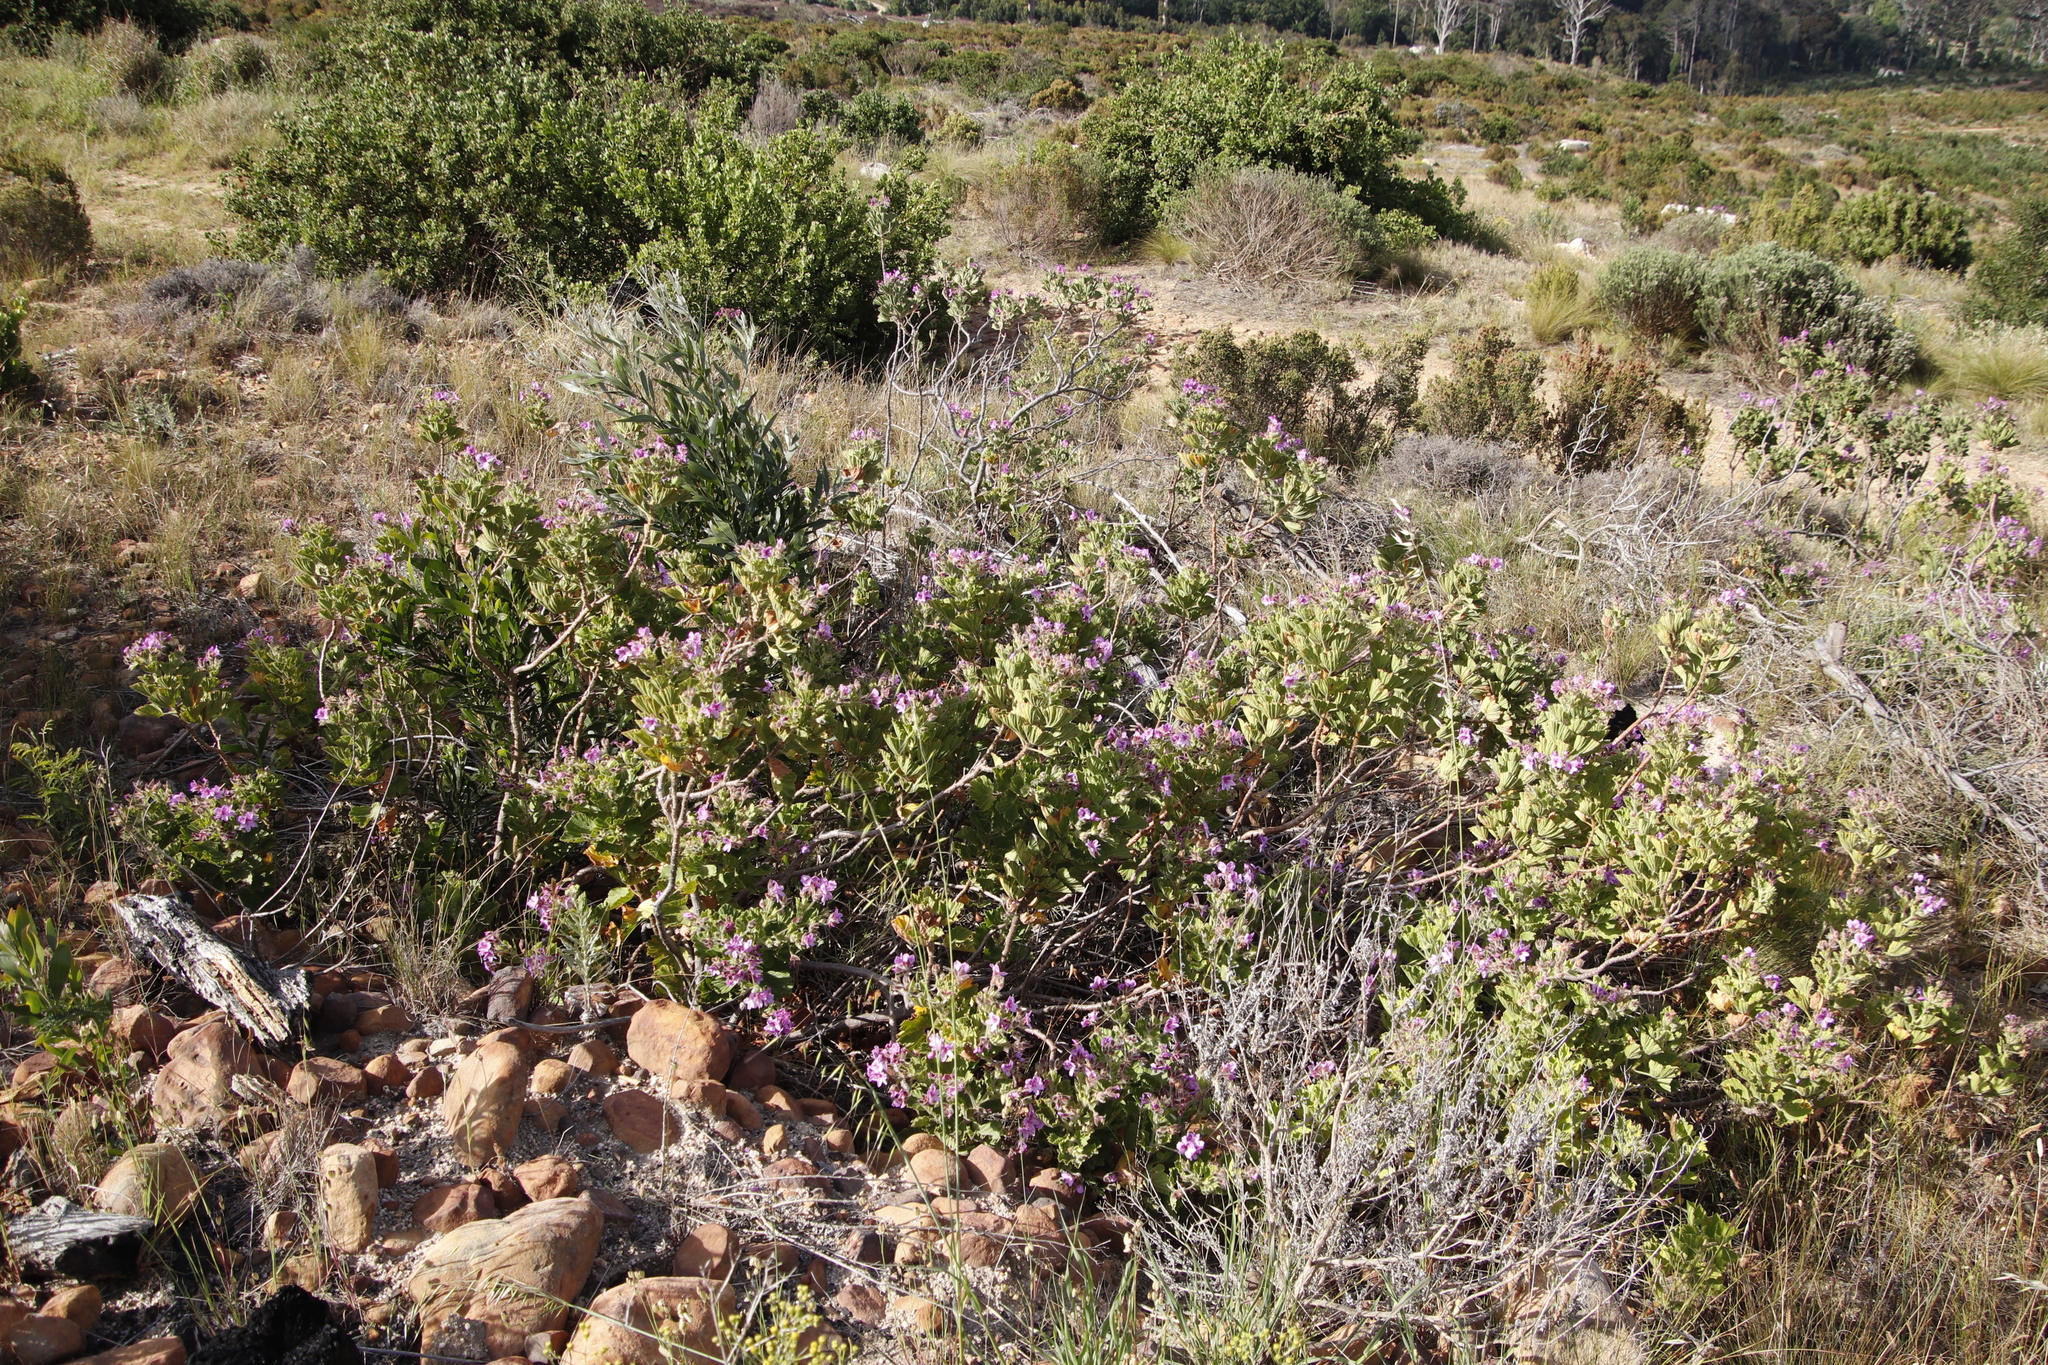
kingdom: Plantae
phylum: Tracheophyta
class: Magnoliopsida
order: Geraniales
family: Geraniaceae
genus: Pelargonium
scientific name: Pelargonium cucullatum
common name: Tree pelargonium
